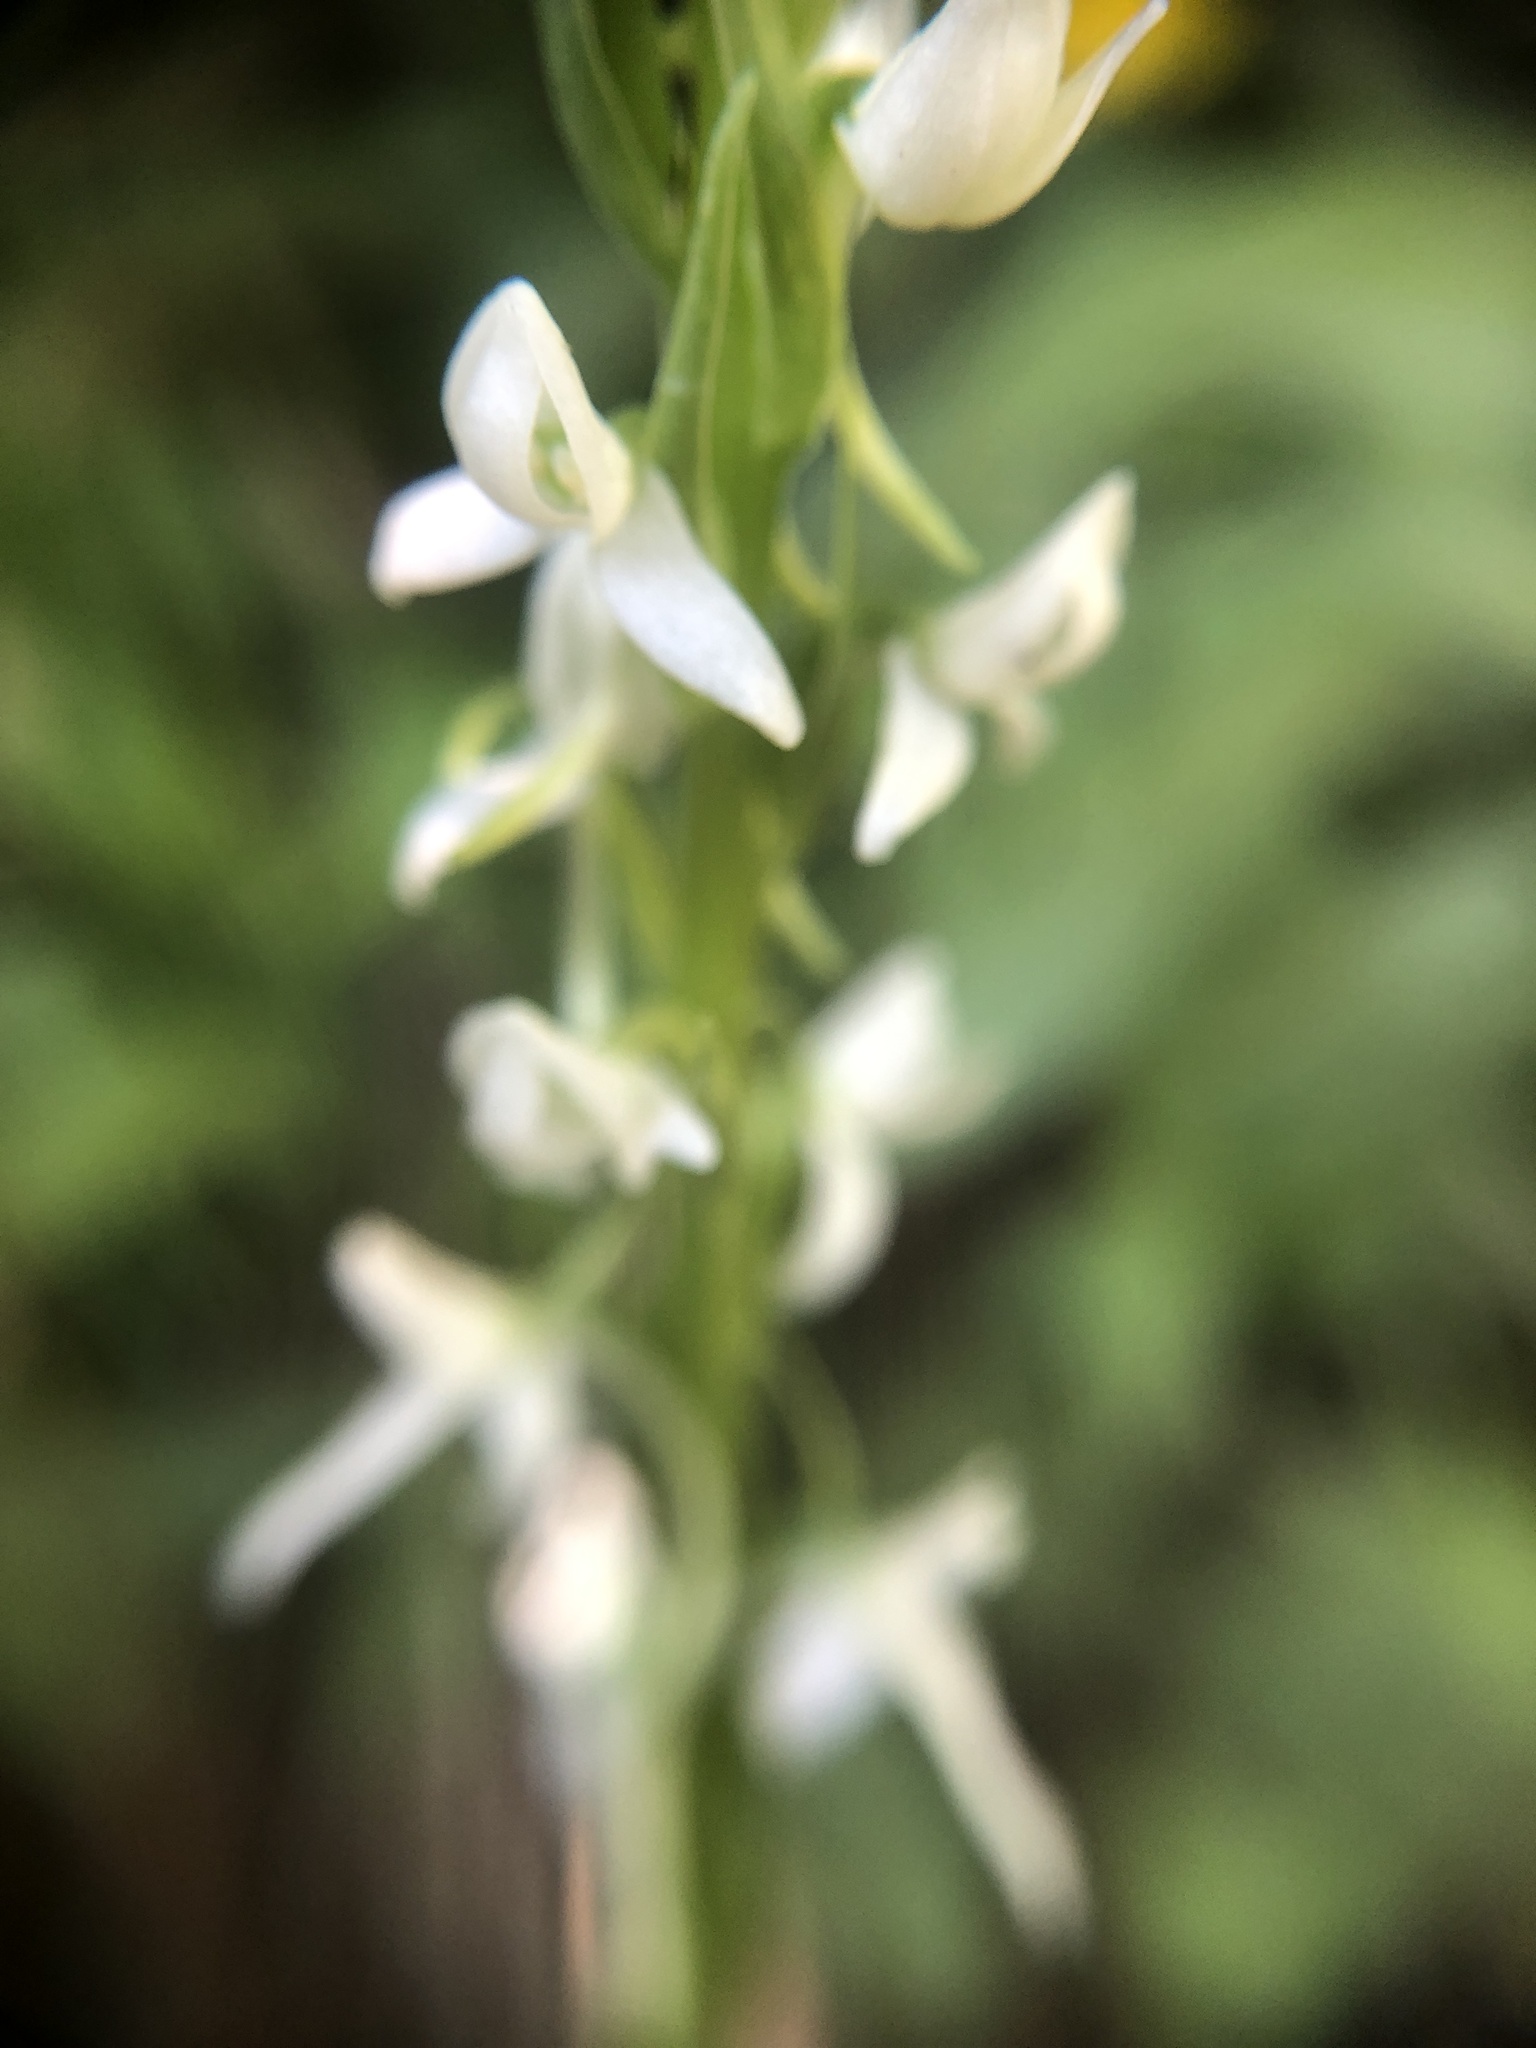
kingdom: Plantae
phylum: Tracheophyta
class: Liliopsida
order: Asparagales
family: Orchidaceae
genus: Platanthera
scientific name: Platanthera dilatata
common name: Bog candles
